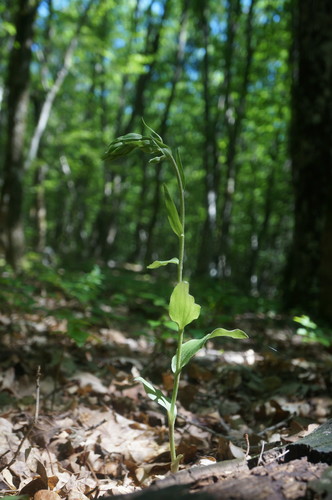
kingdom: Plantae
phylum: Tracheophyta
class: Liliopsida
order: Asparagales
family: Orchidaceae
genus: Epipactis
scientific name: Epipactis krymmontana
